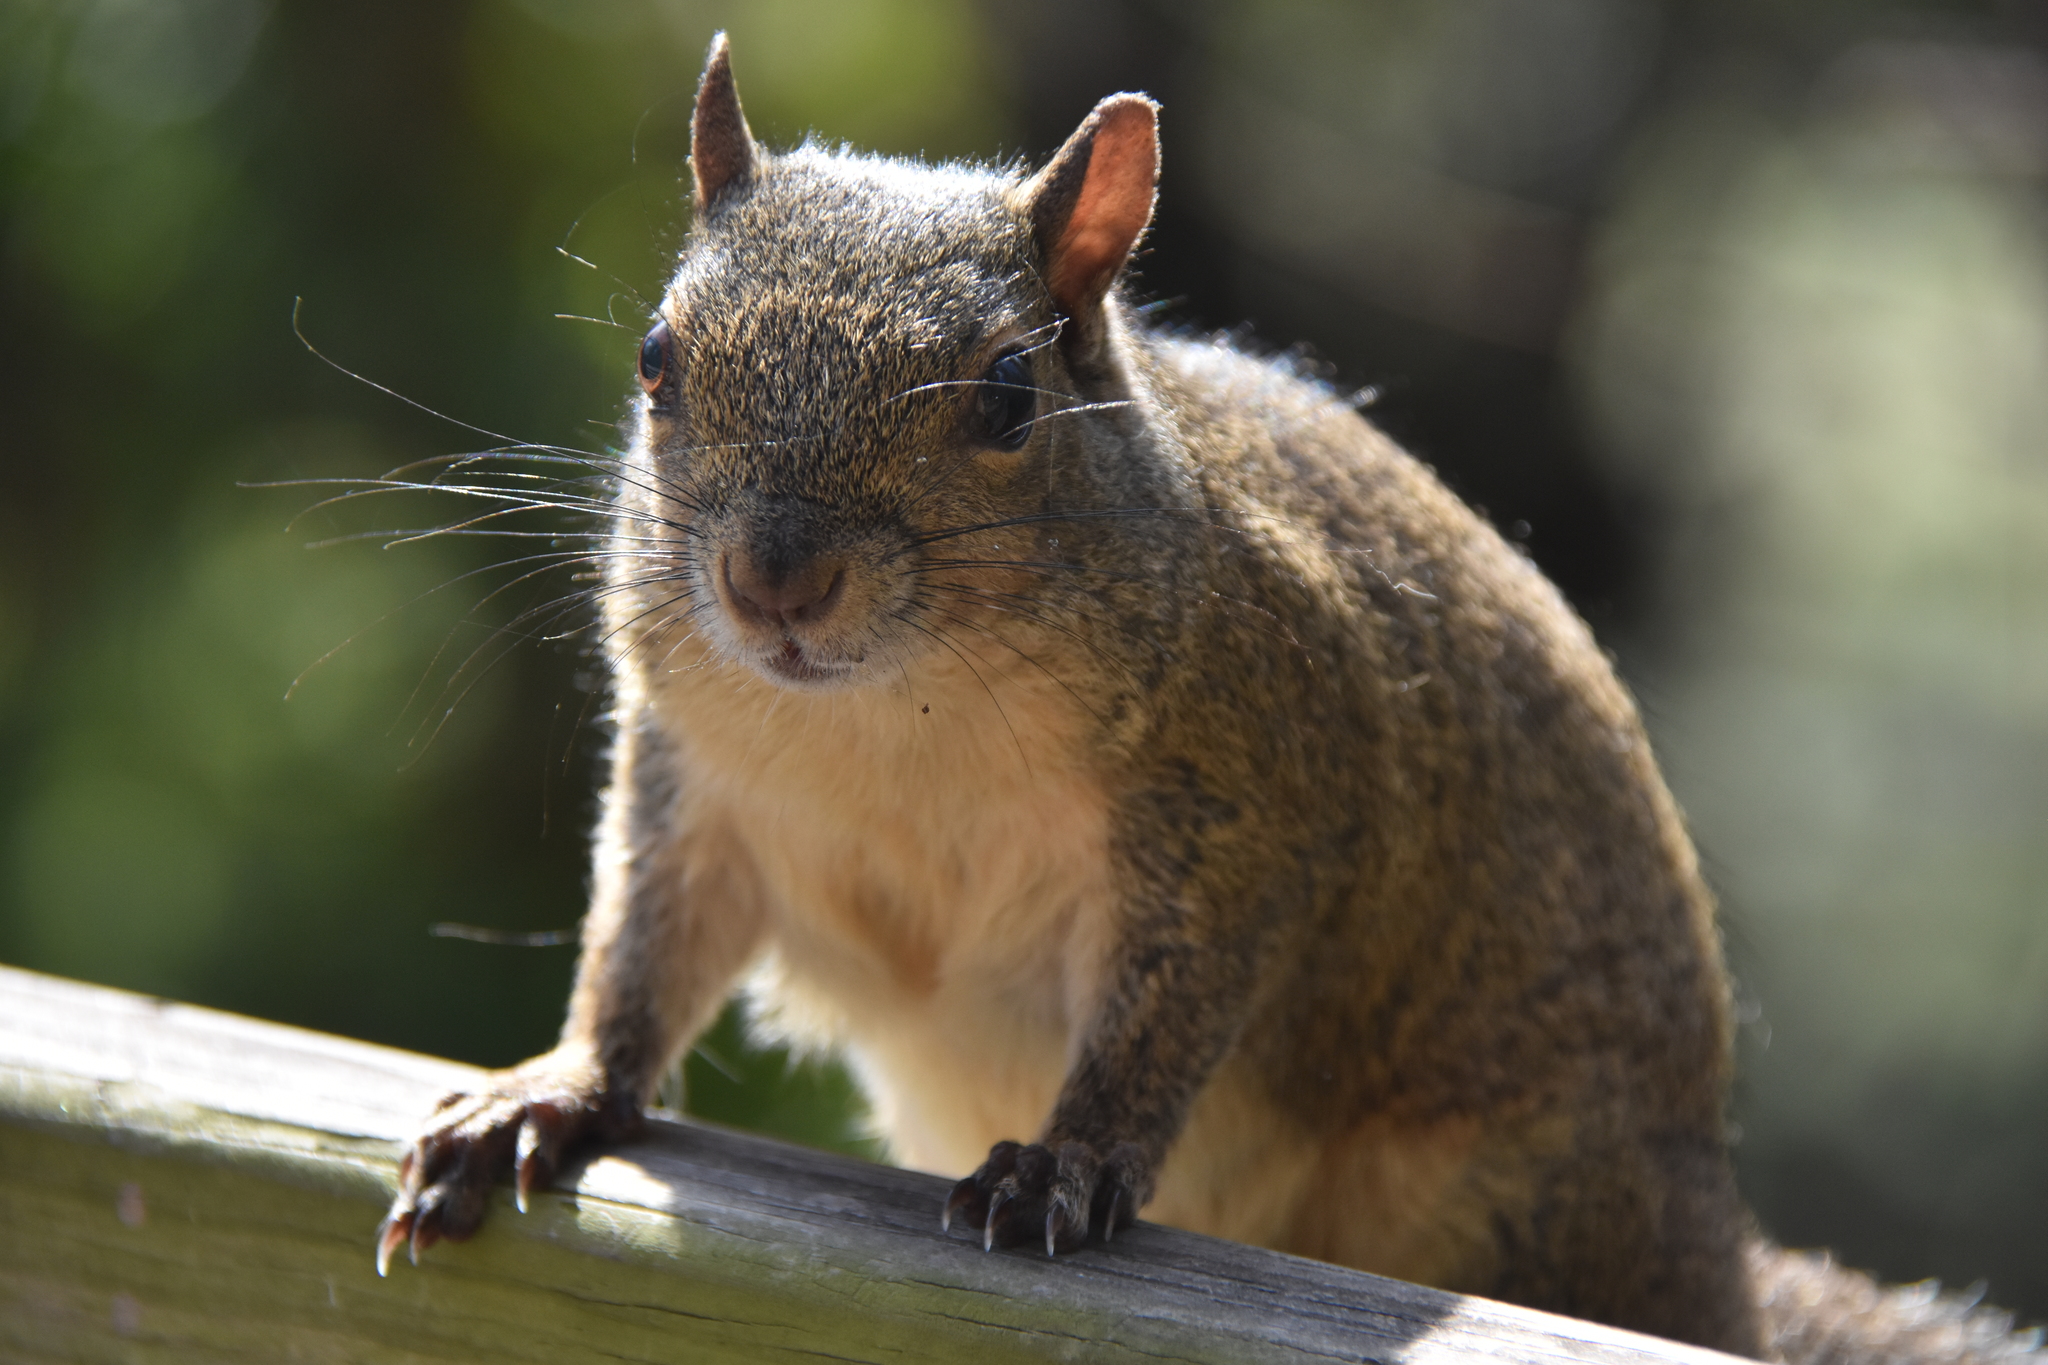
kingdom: Animalia
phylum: Chordata
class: Mammalia
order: Rodentia
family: Sciuridae
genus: Sciurus
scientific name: Sciurus carolinensis
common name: Eastern gray squirrel
